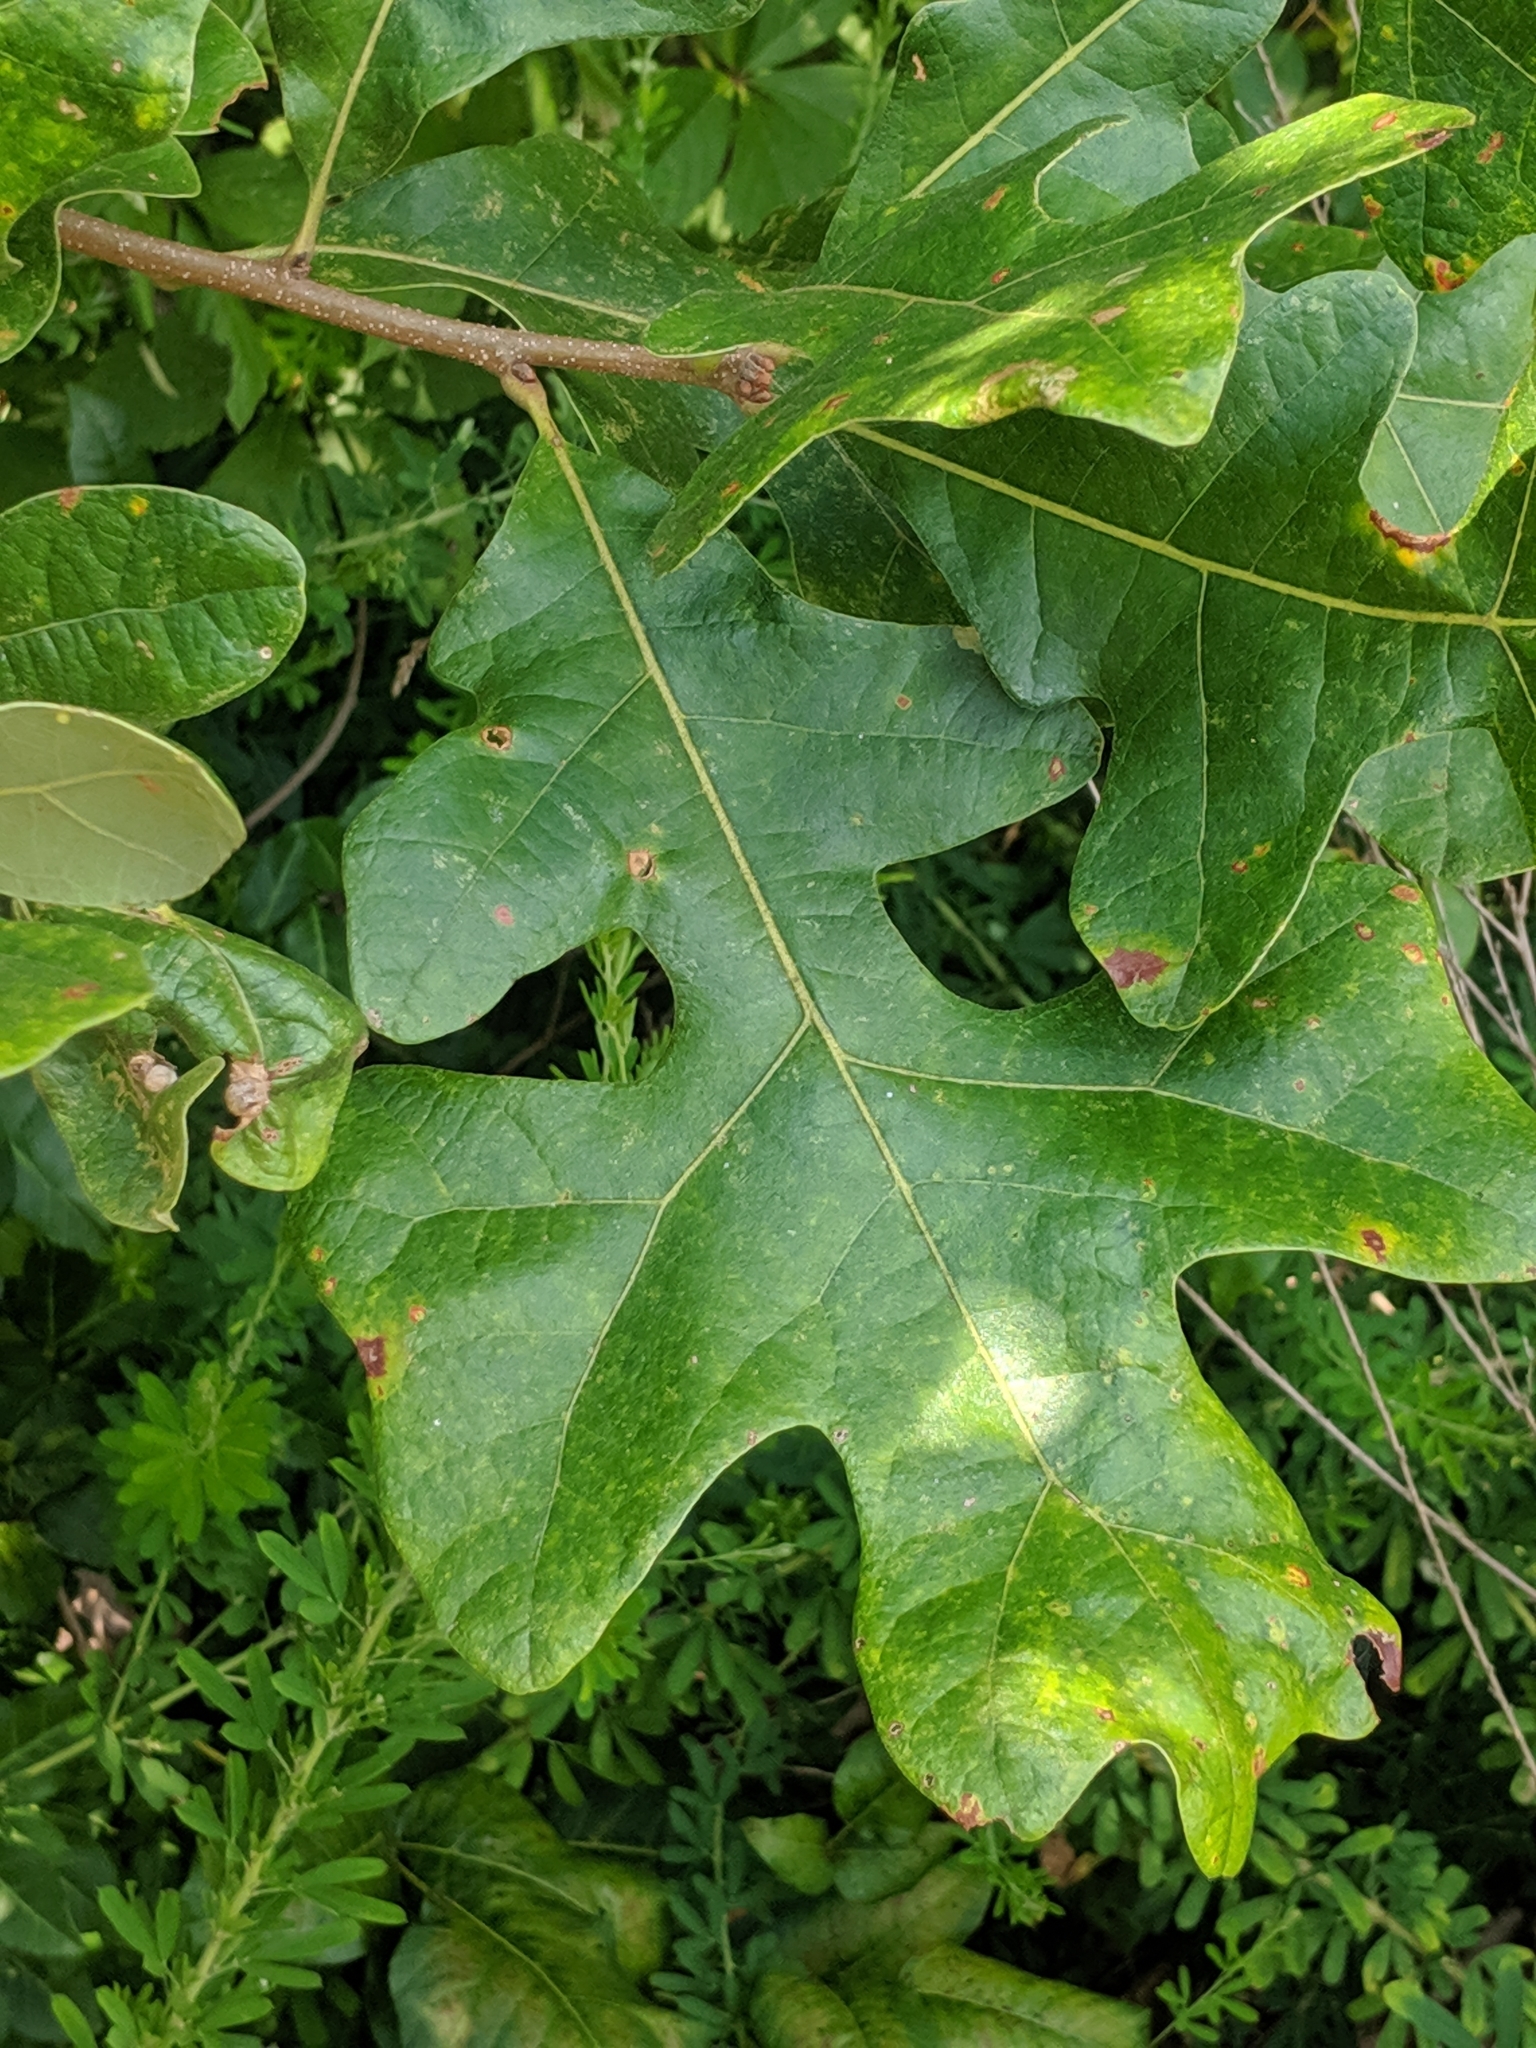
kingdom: Plantae
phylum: Tracheophyta
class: Magnoliopsida
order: Fagales
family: Fagaceae
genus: Quercus
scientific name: Quercus stellata
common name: Post oak
